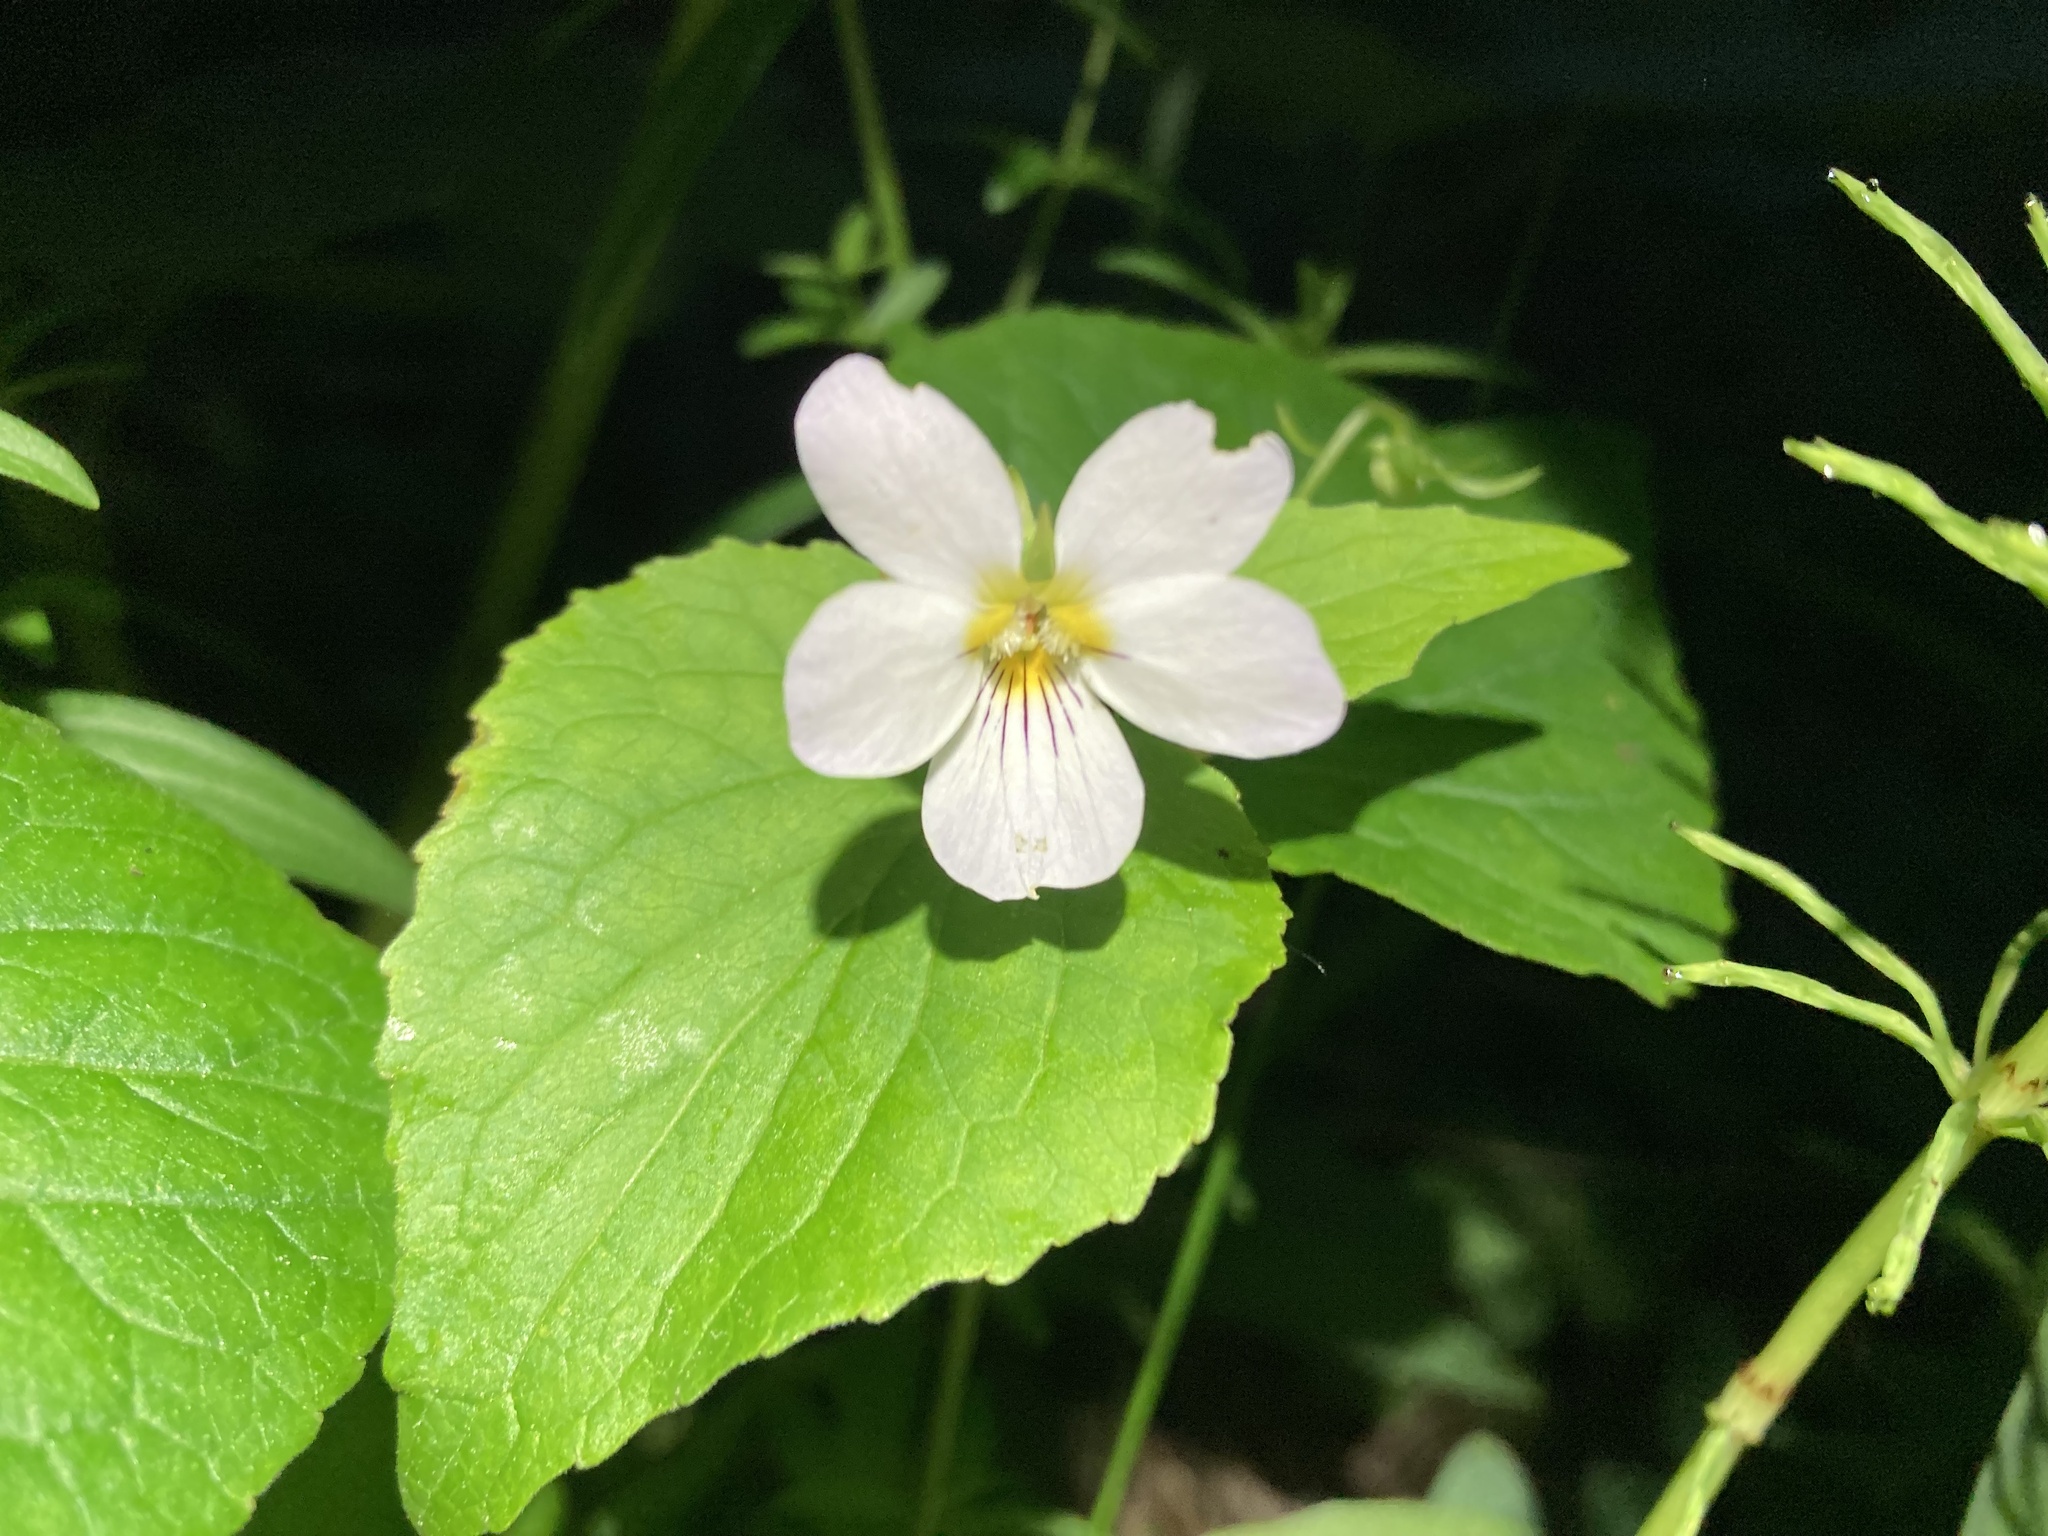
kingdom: Plantae
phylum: Tracheophyta
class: Magnoliopsida
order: Malpighiales
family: Violaceae
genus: Viola
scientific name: Viola canadensis
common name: Canada violet
